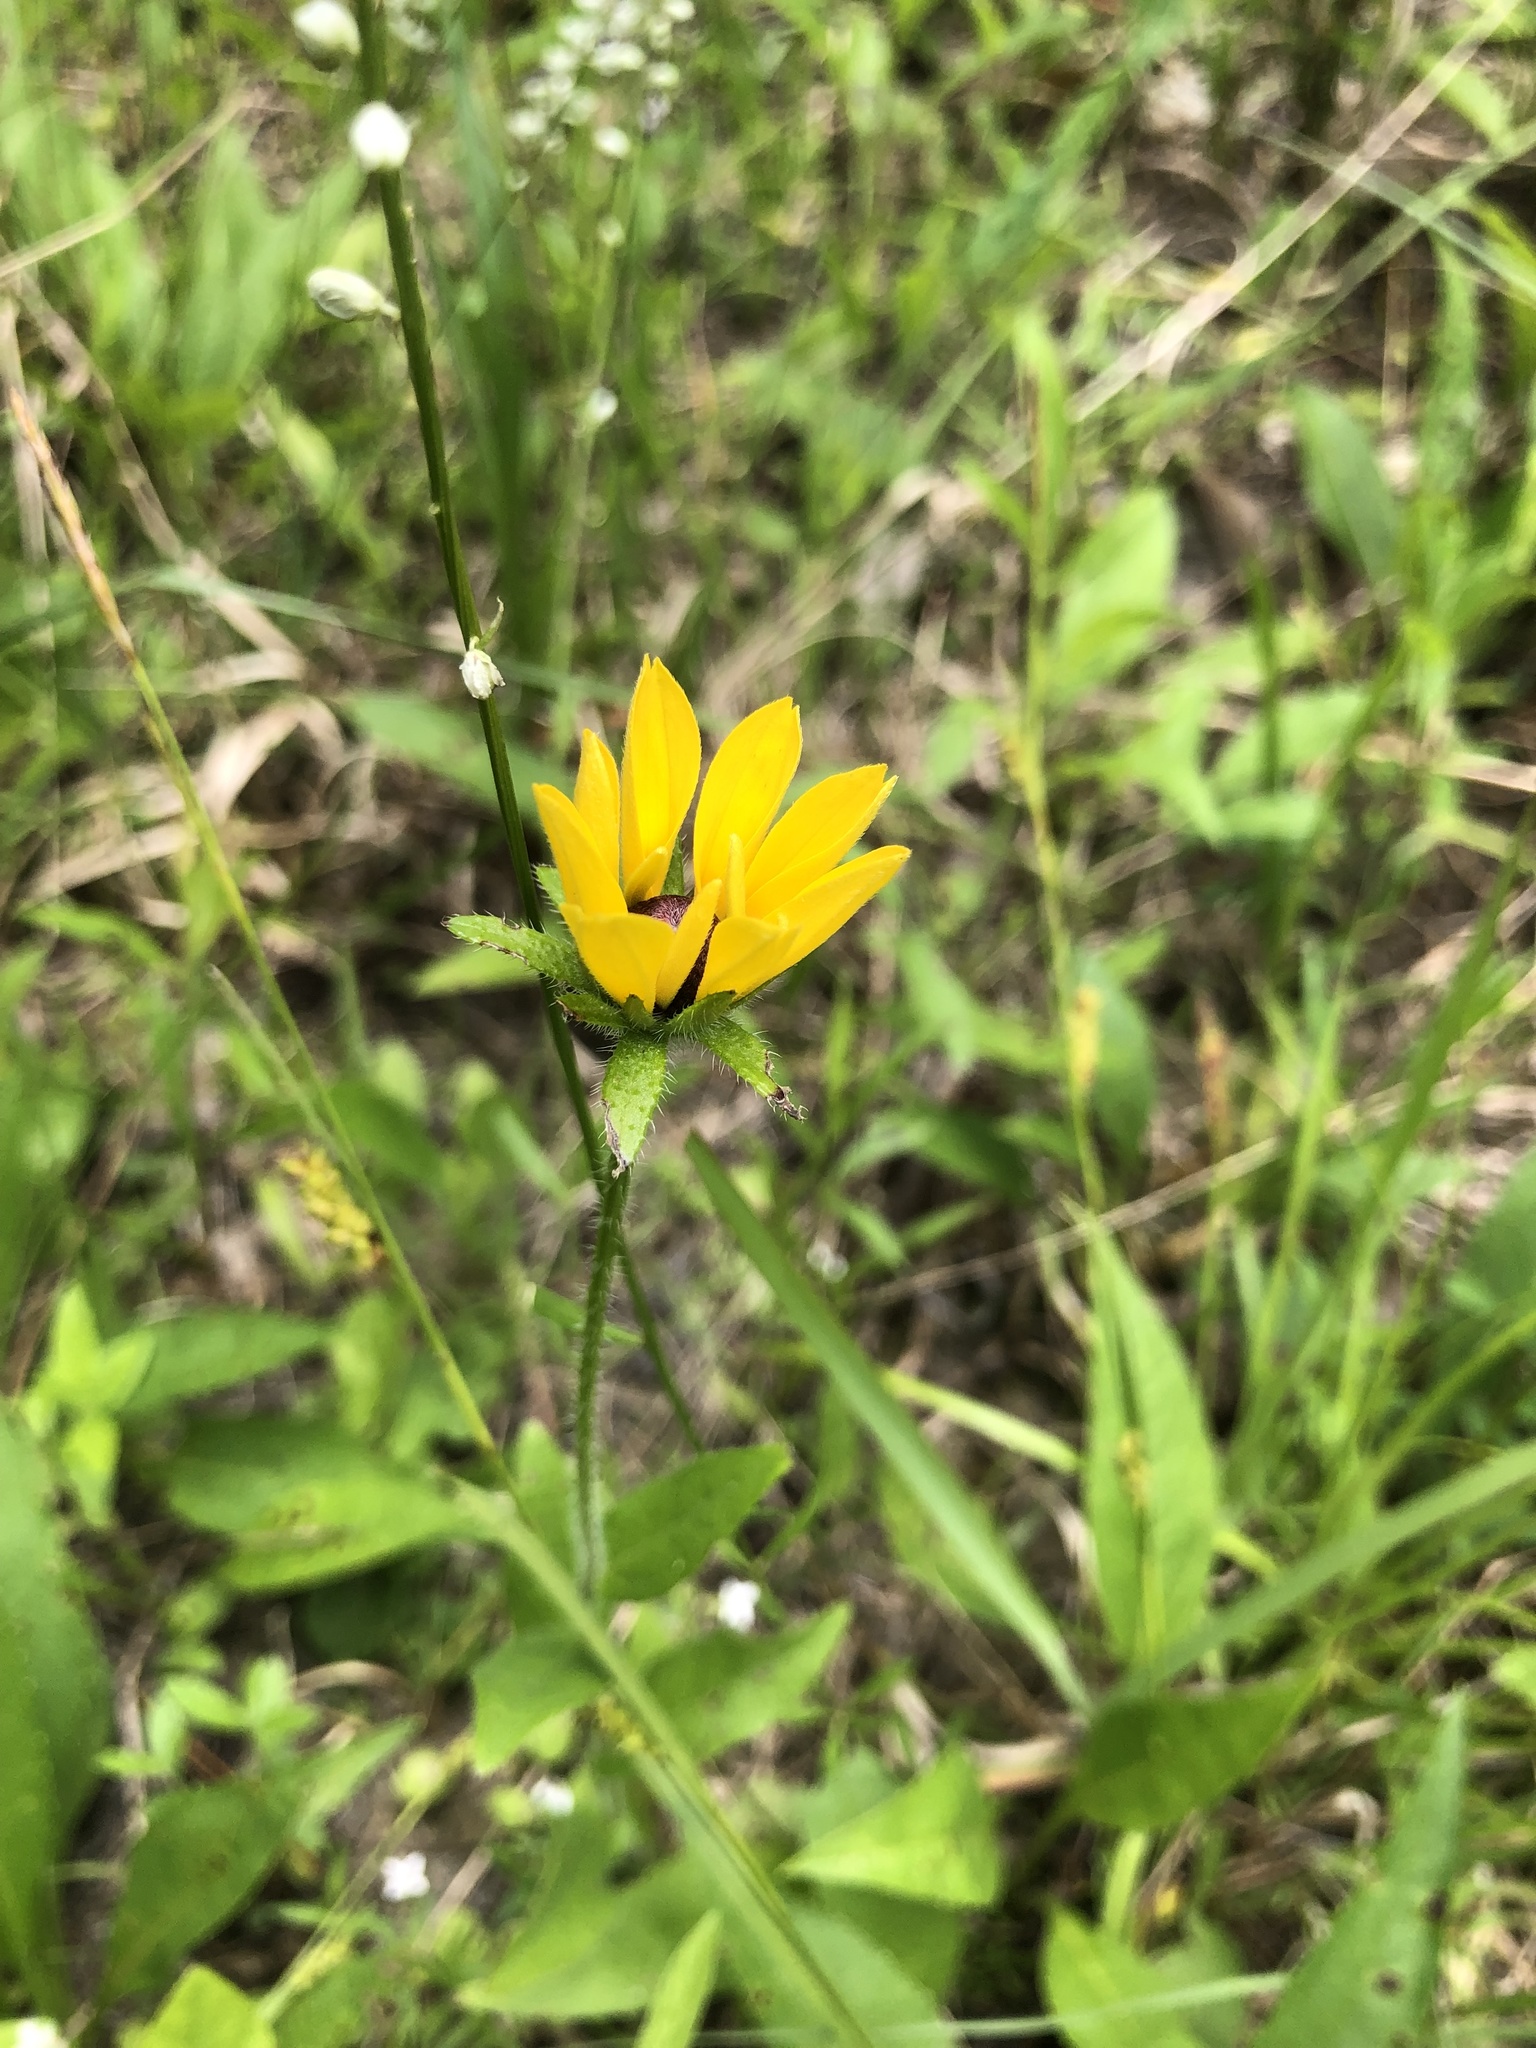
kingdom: Plantae
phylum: Tracheophyta
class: Magnoliopsida
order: Asterales
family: Asteraceae
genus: Rudbeckia
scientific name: Rudbeckia hirta
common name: Black-eyed-susan
